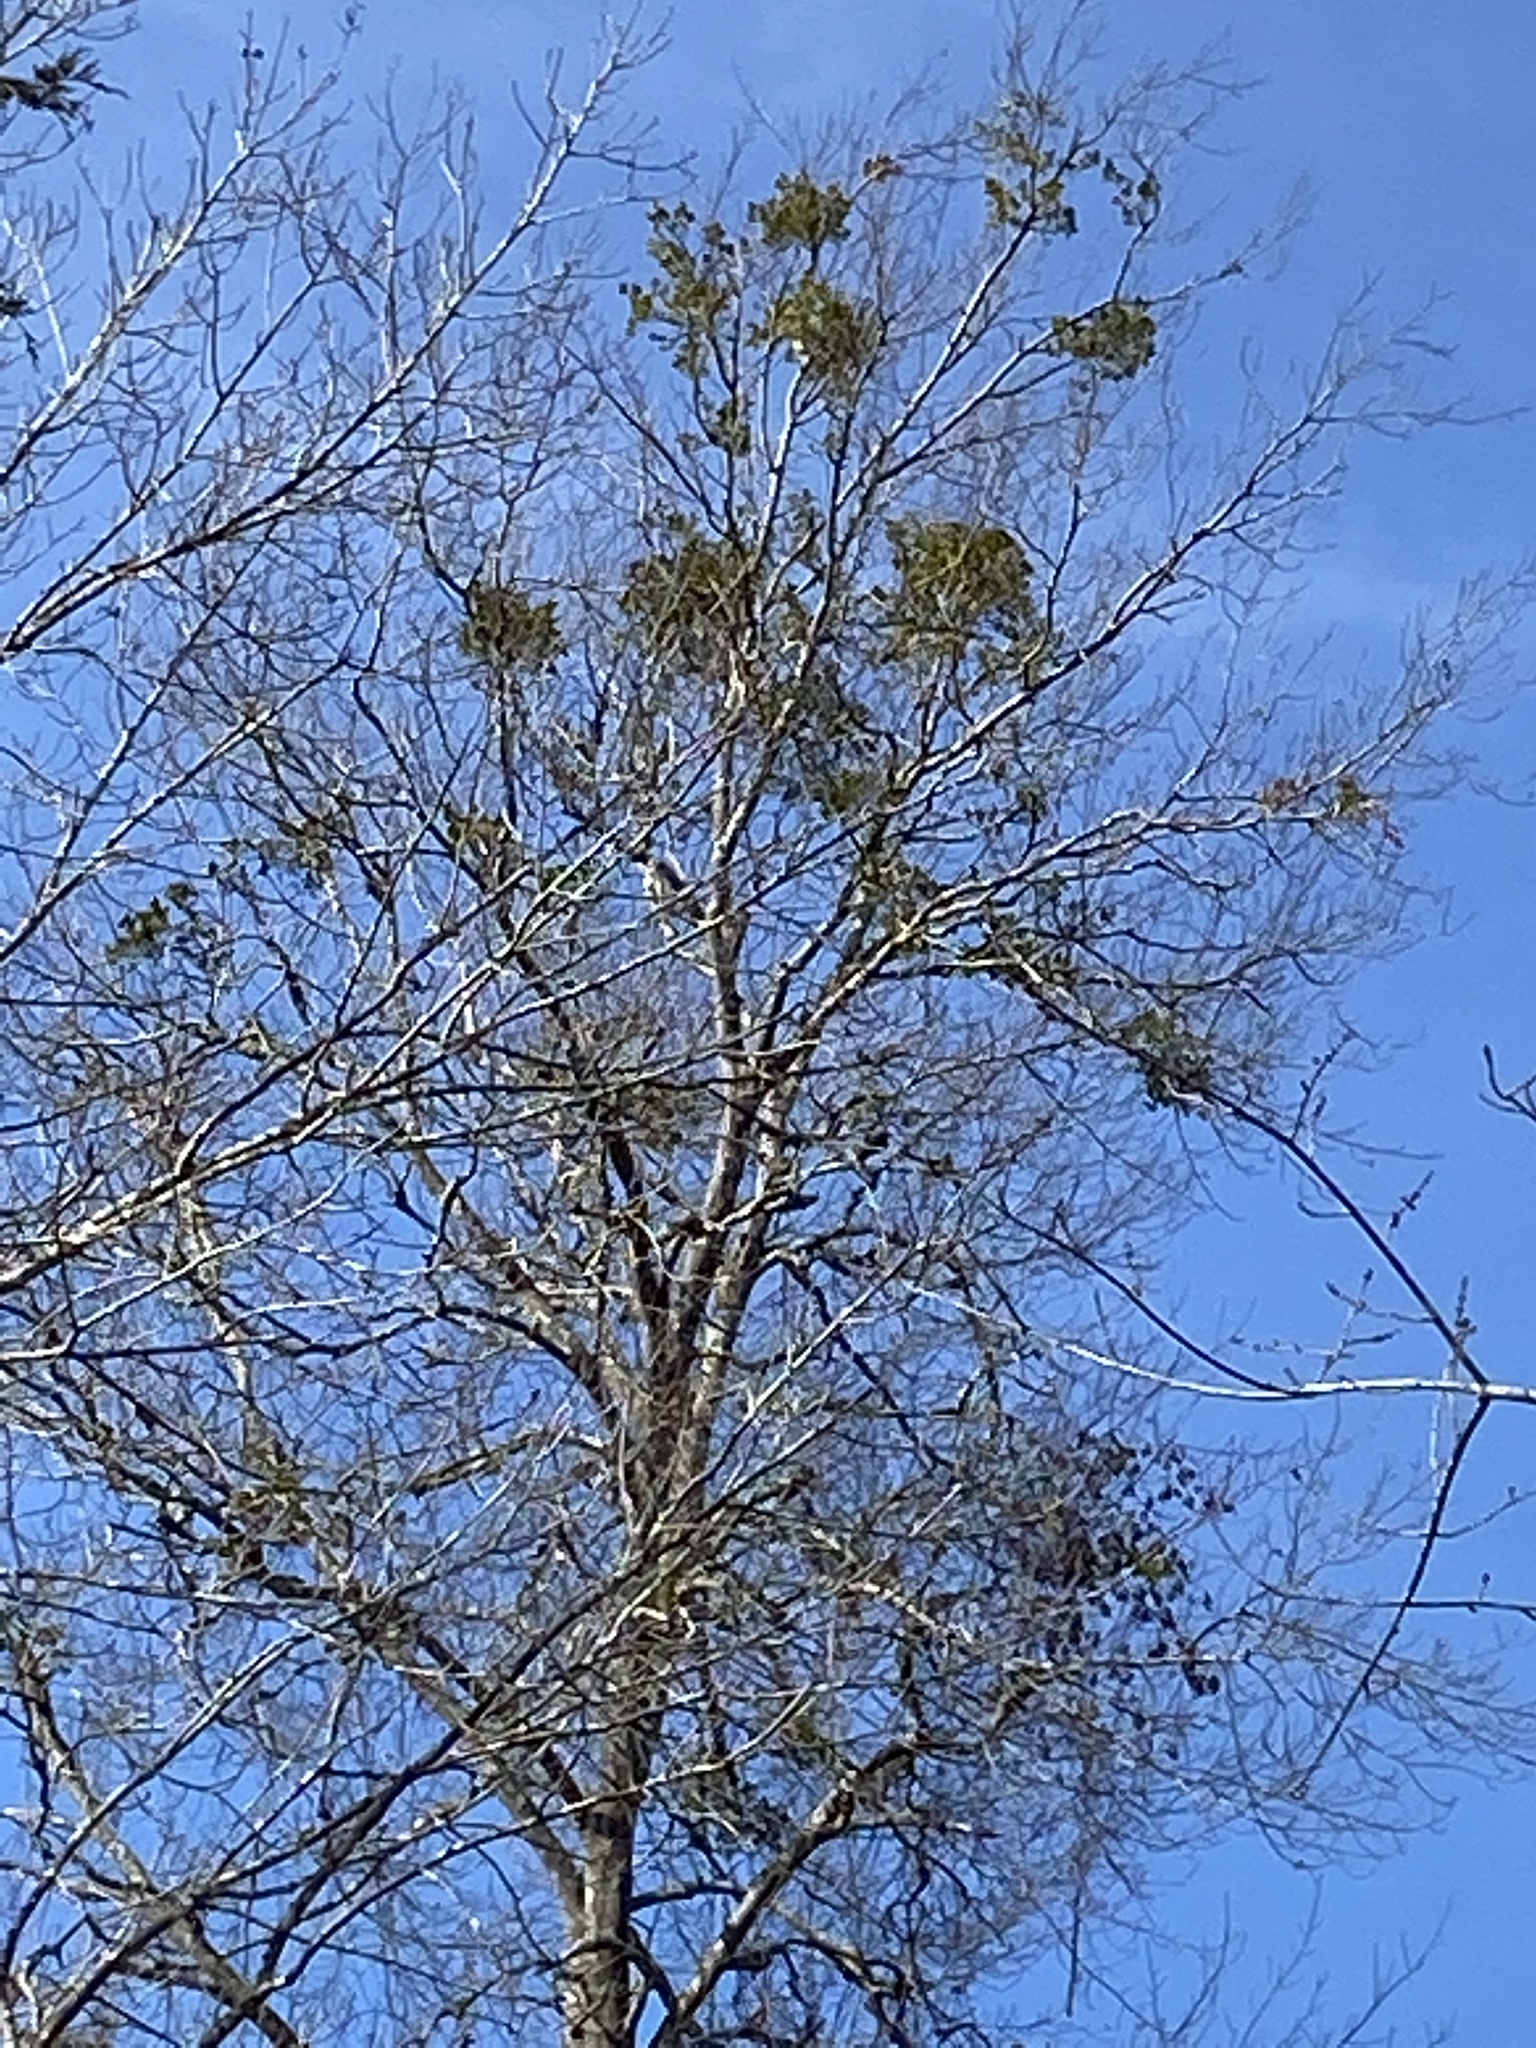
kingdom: Plantae
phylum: Tracheophyta
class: Magnoliopsida
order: Santalales
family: Viscaceae
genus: Phoradendron
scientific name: Phoradendron leucarpum
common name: Pacific mistletoe
